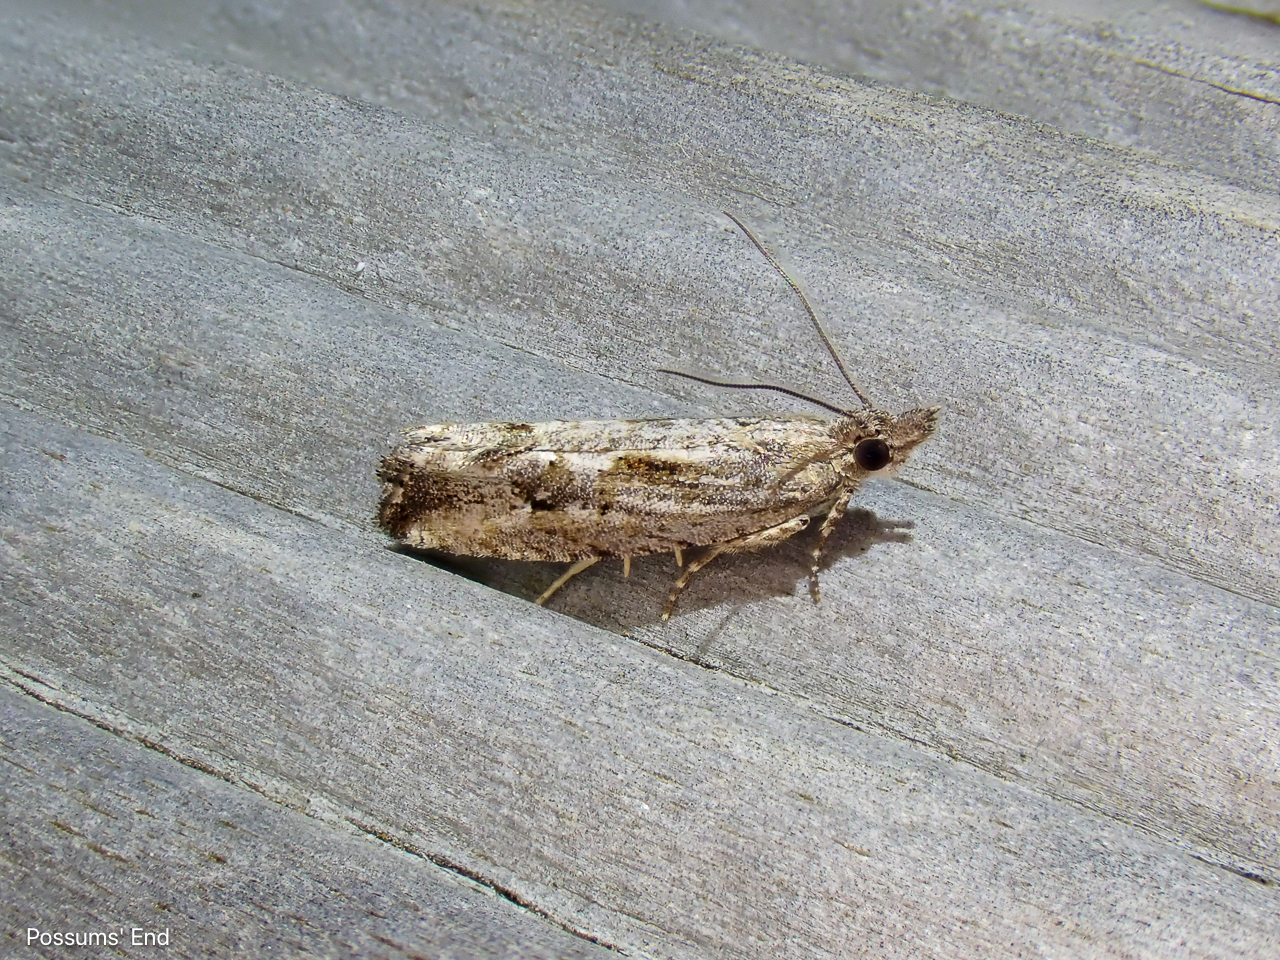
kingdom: Animalia
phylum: Arthropoda
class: Insecta
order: Lepidoptera
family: Tortricidae
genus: Strepsicrates
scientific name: Strepsicrates ejectana
